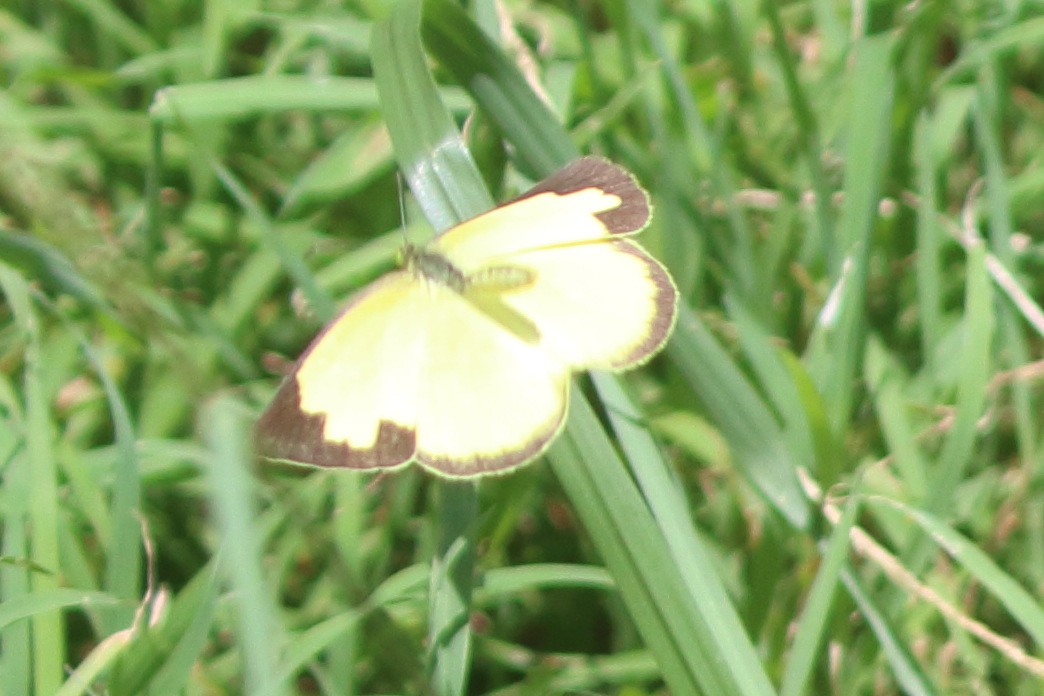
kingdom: Animalia
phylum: Arthropoda
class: Insecta
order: Lepidoptera
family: Pieridae
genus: Eurema
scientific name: Eurema hecabe
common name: Pale grass yellow
